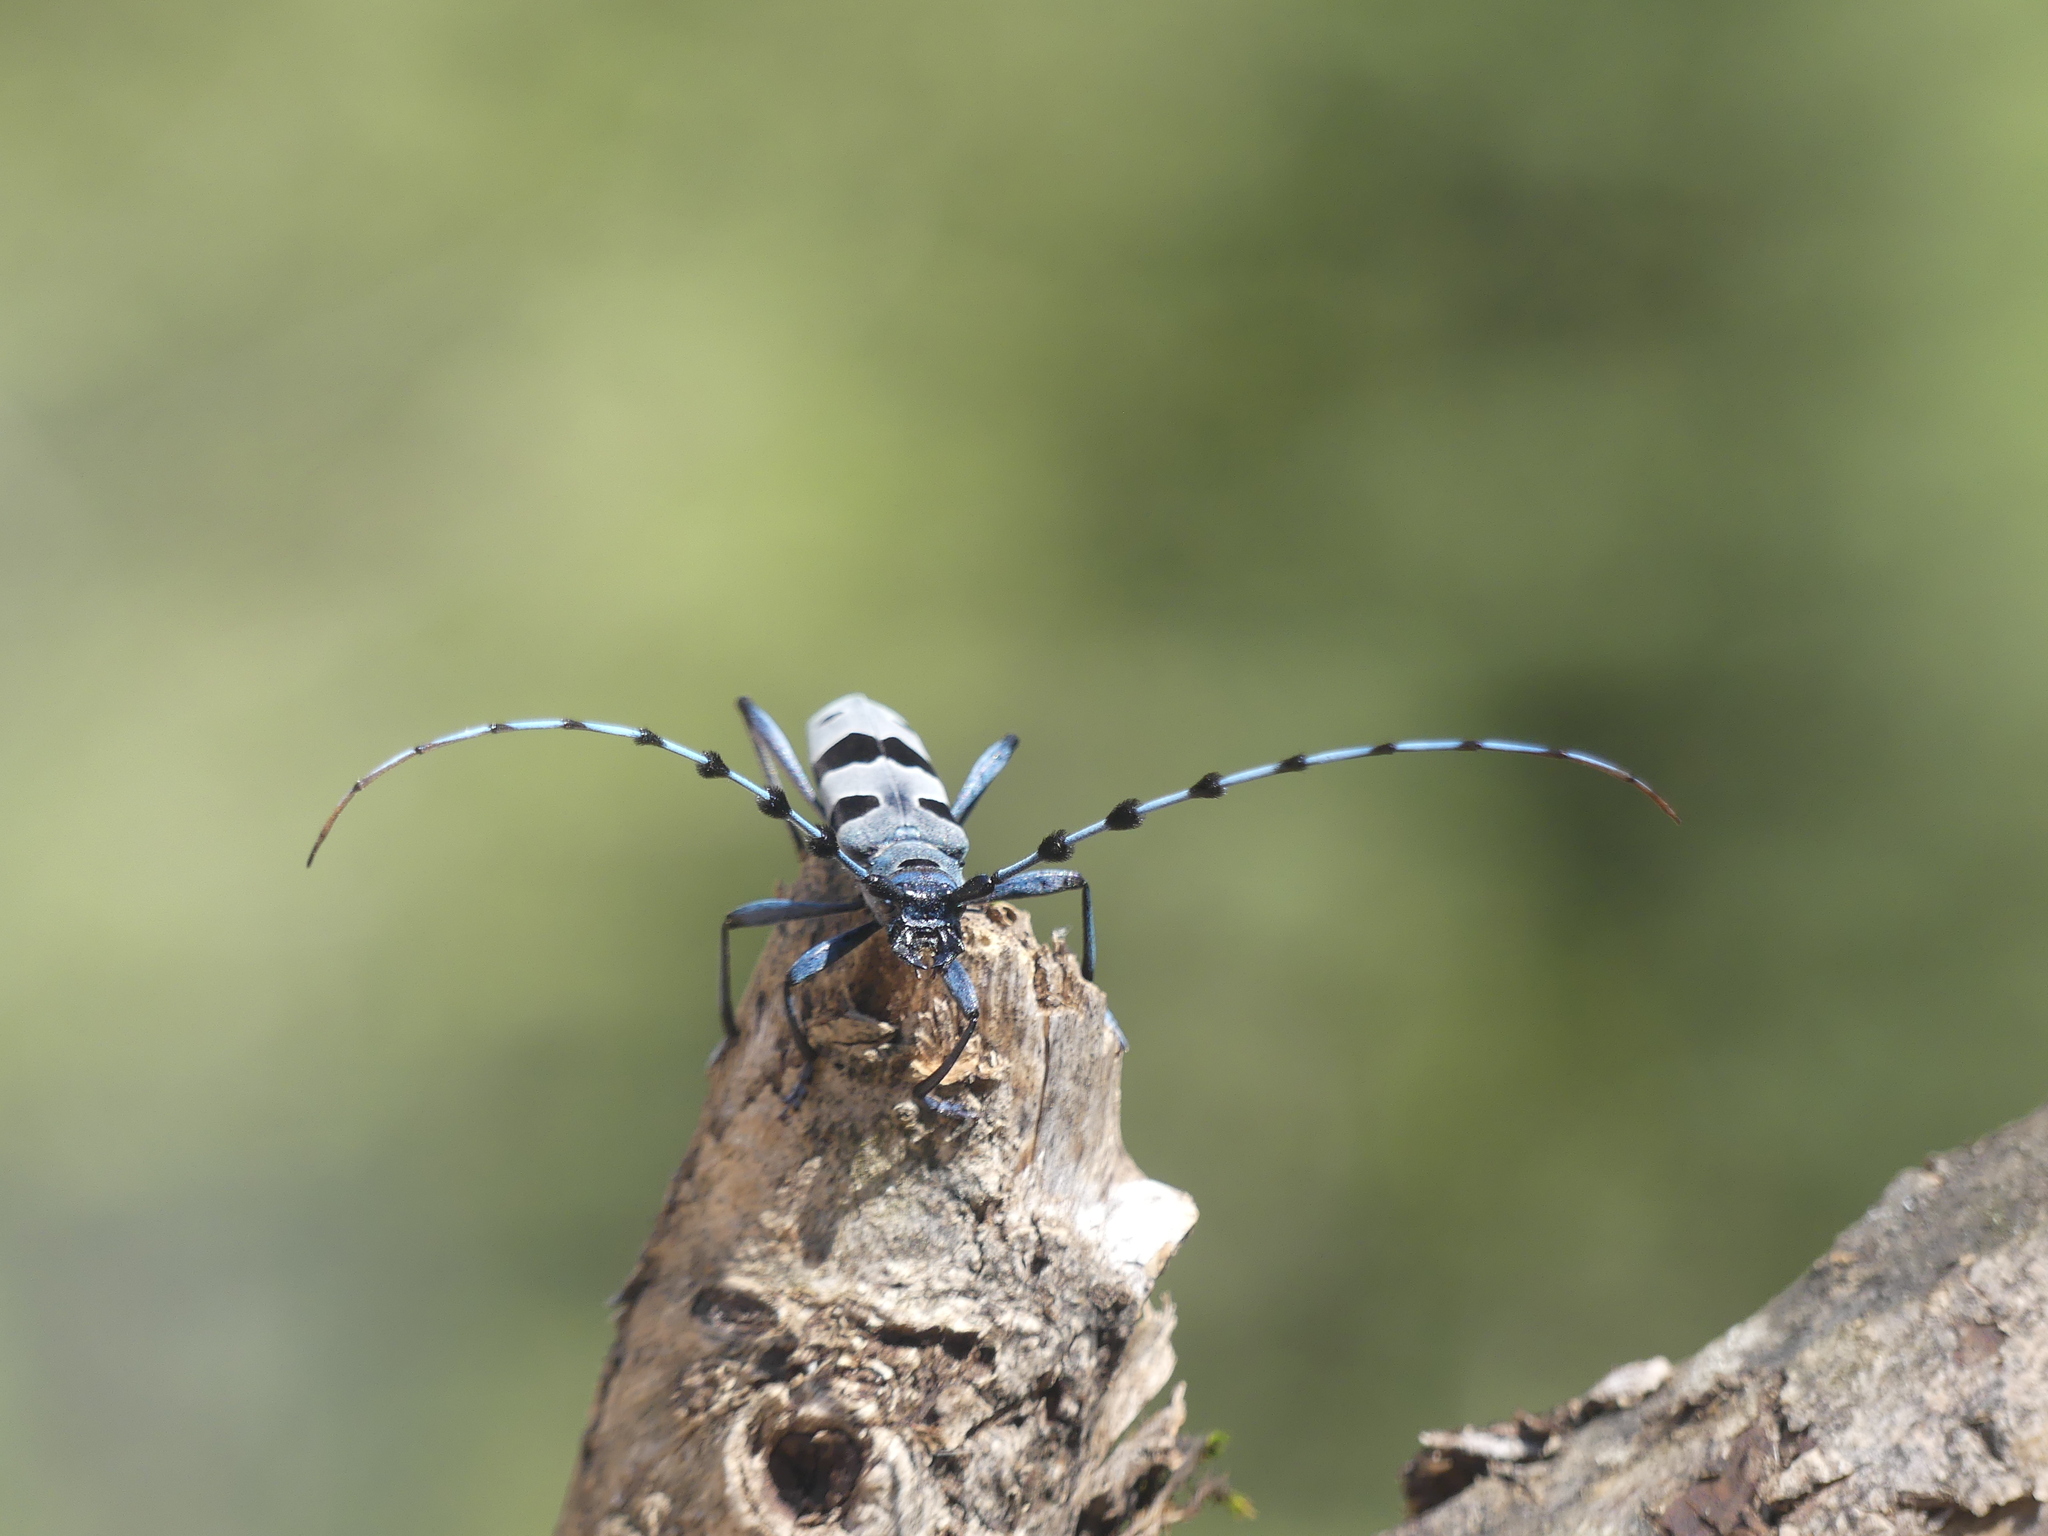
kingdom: Animalia
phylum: Arthropoda
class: Insecta
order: Coleoptera
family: Cerambycidae
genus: Rosalia
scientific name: Rosalia alpina
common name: Rosalia longicorn
